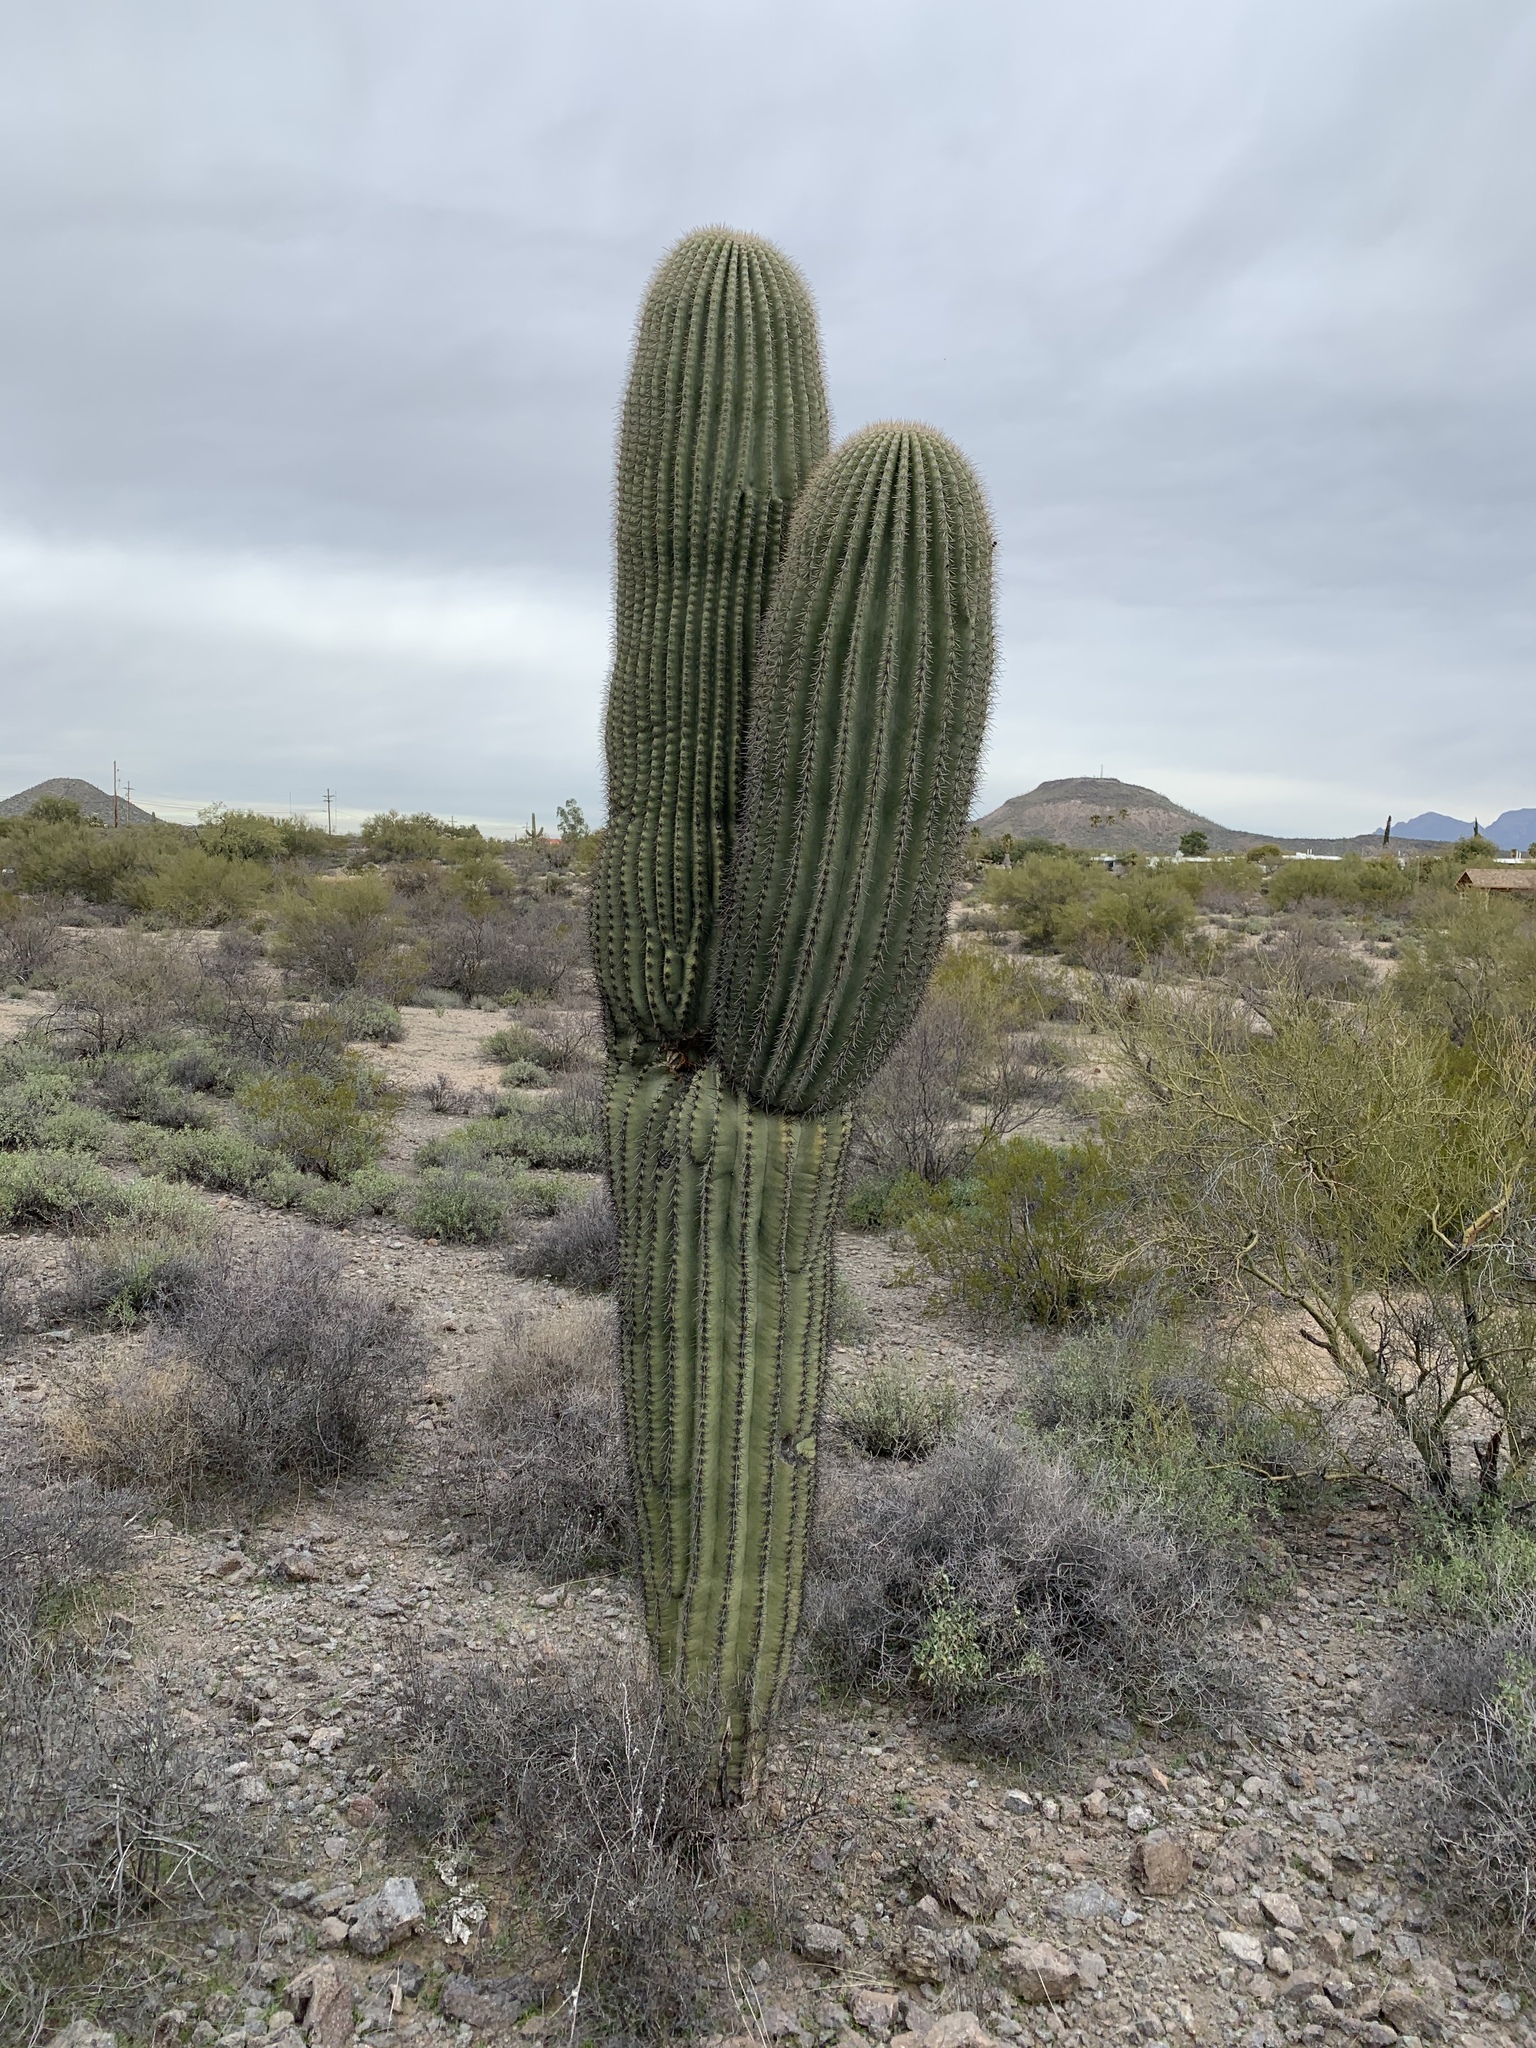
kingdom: Plantae
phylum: Tracheophyta
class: Magnoliopsida
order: Caryophyllales
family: Cactaceae
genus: Carnegiea
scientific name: Carnegiea gigantea
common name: Saguaro
